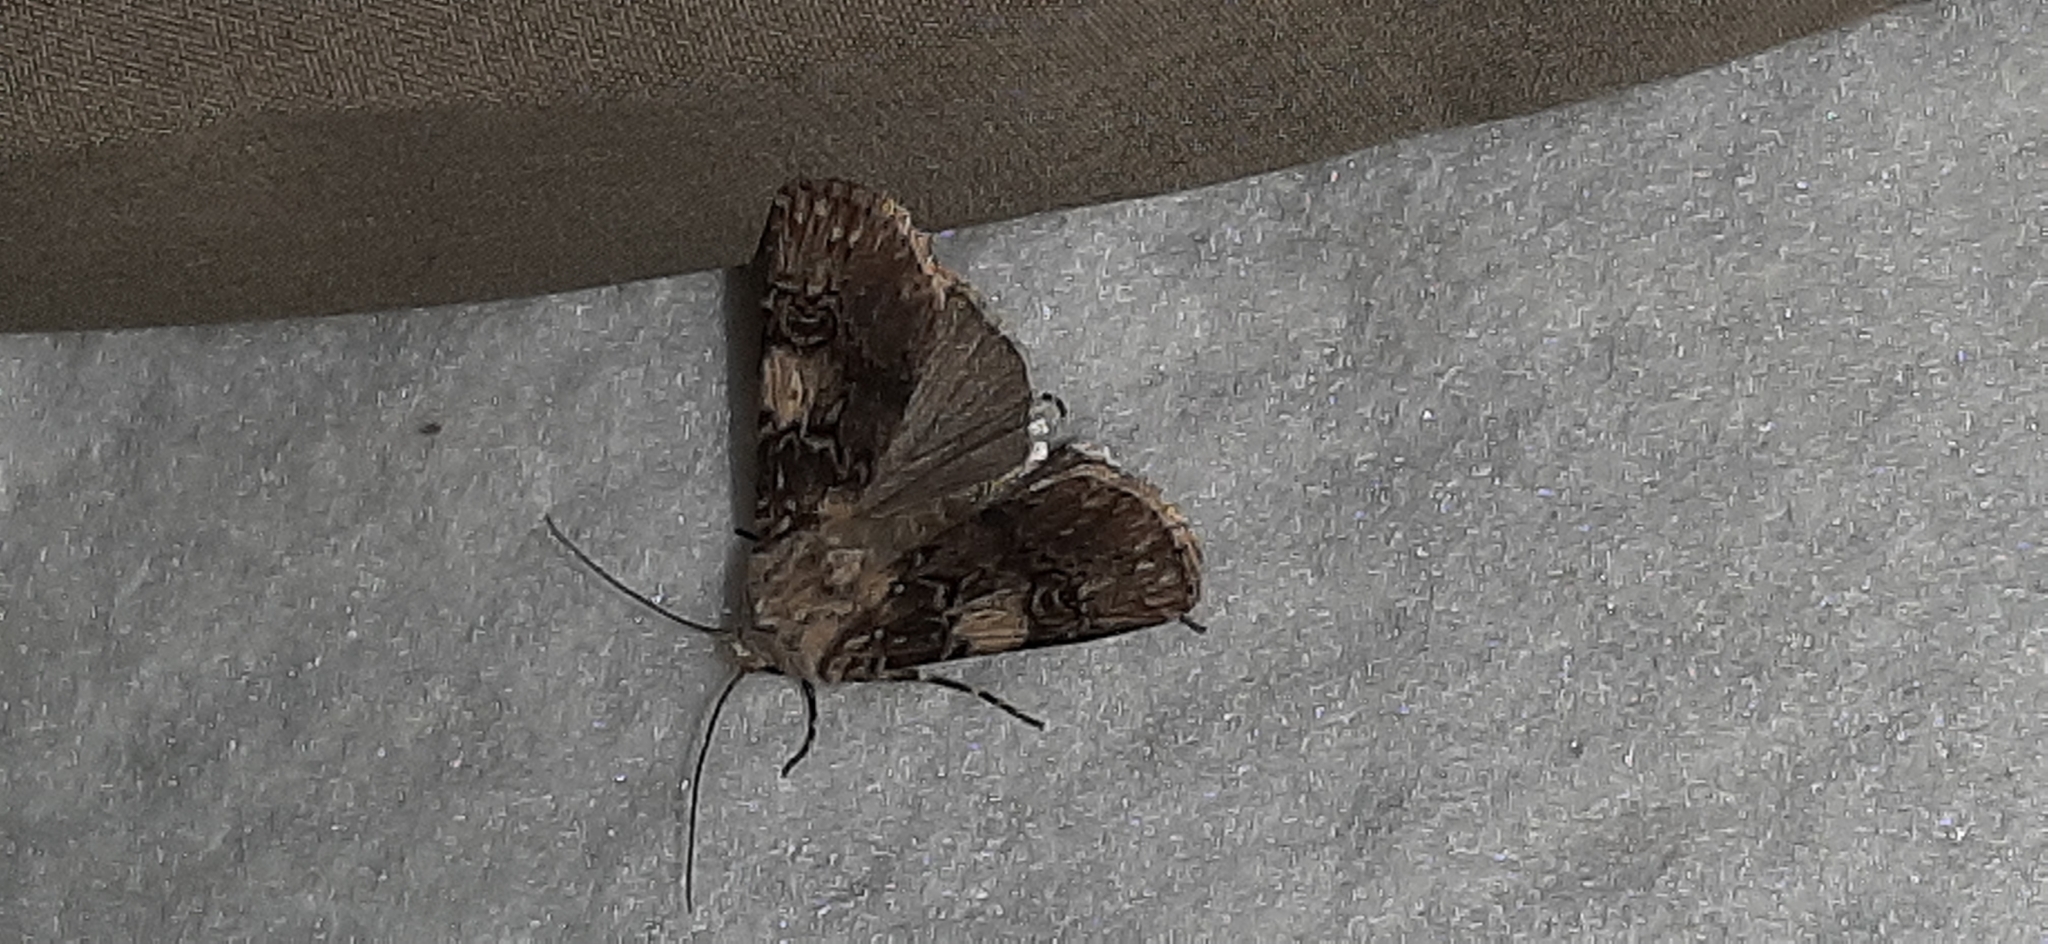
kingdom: Animalia
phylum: Arthropoda
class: Insecta
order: Lepidoptera
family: Noctuidae
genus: Agrotis
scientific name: Agrotis puta
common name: Shuttle-shaped dart
